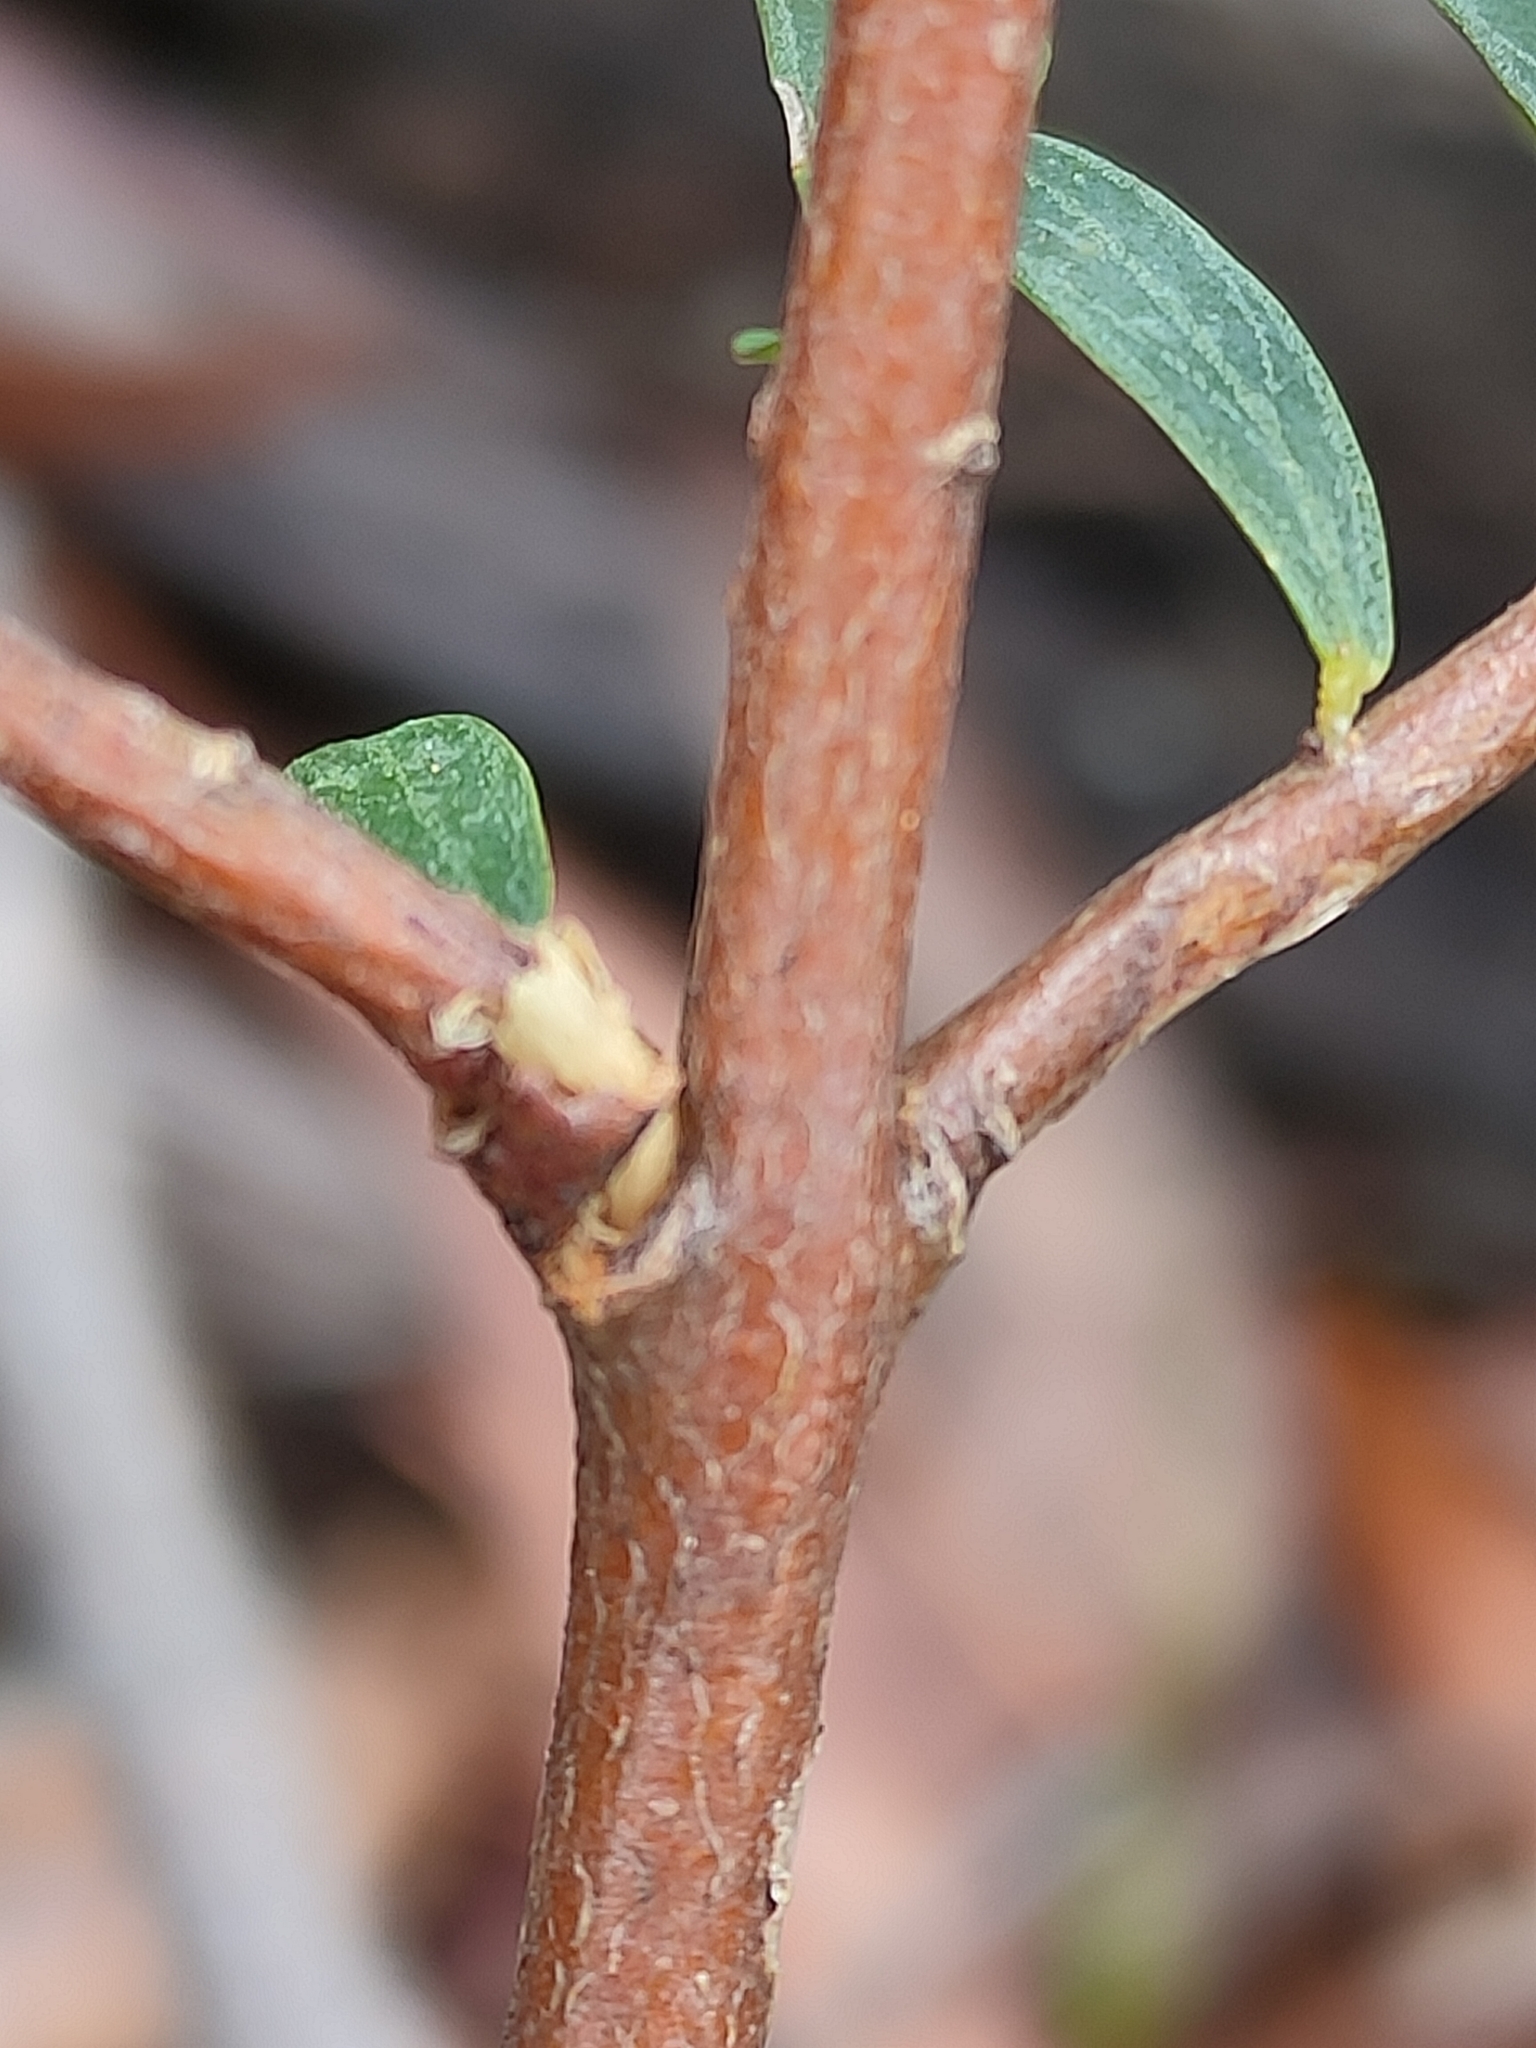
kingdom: Plantae
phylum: Tracheophyta
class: Magnoliopsida
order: Malvales
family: Thymelaeaceae
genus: Pimelea
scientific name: Pimelea linifolia
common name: Queen-of-the-bush
